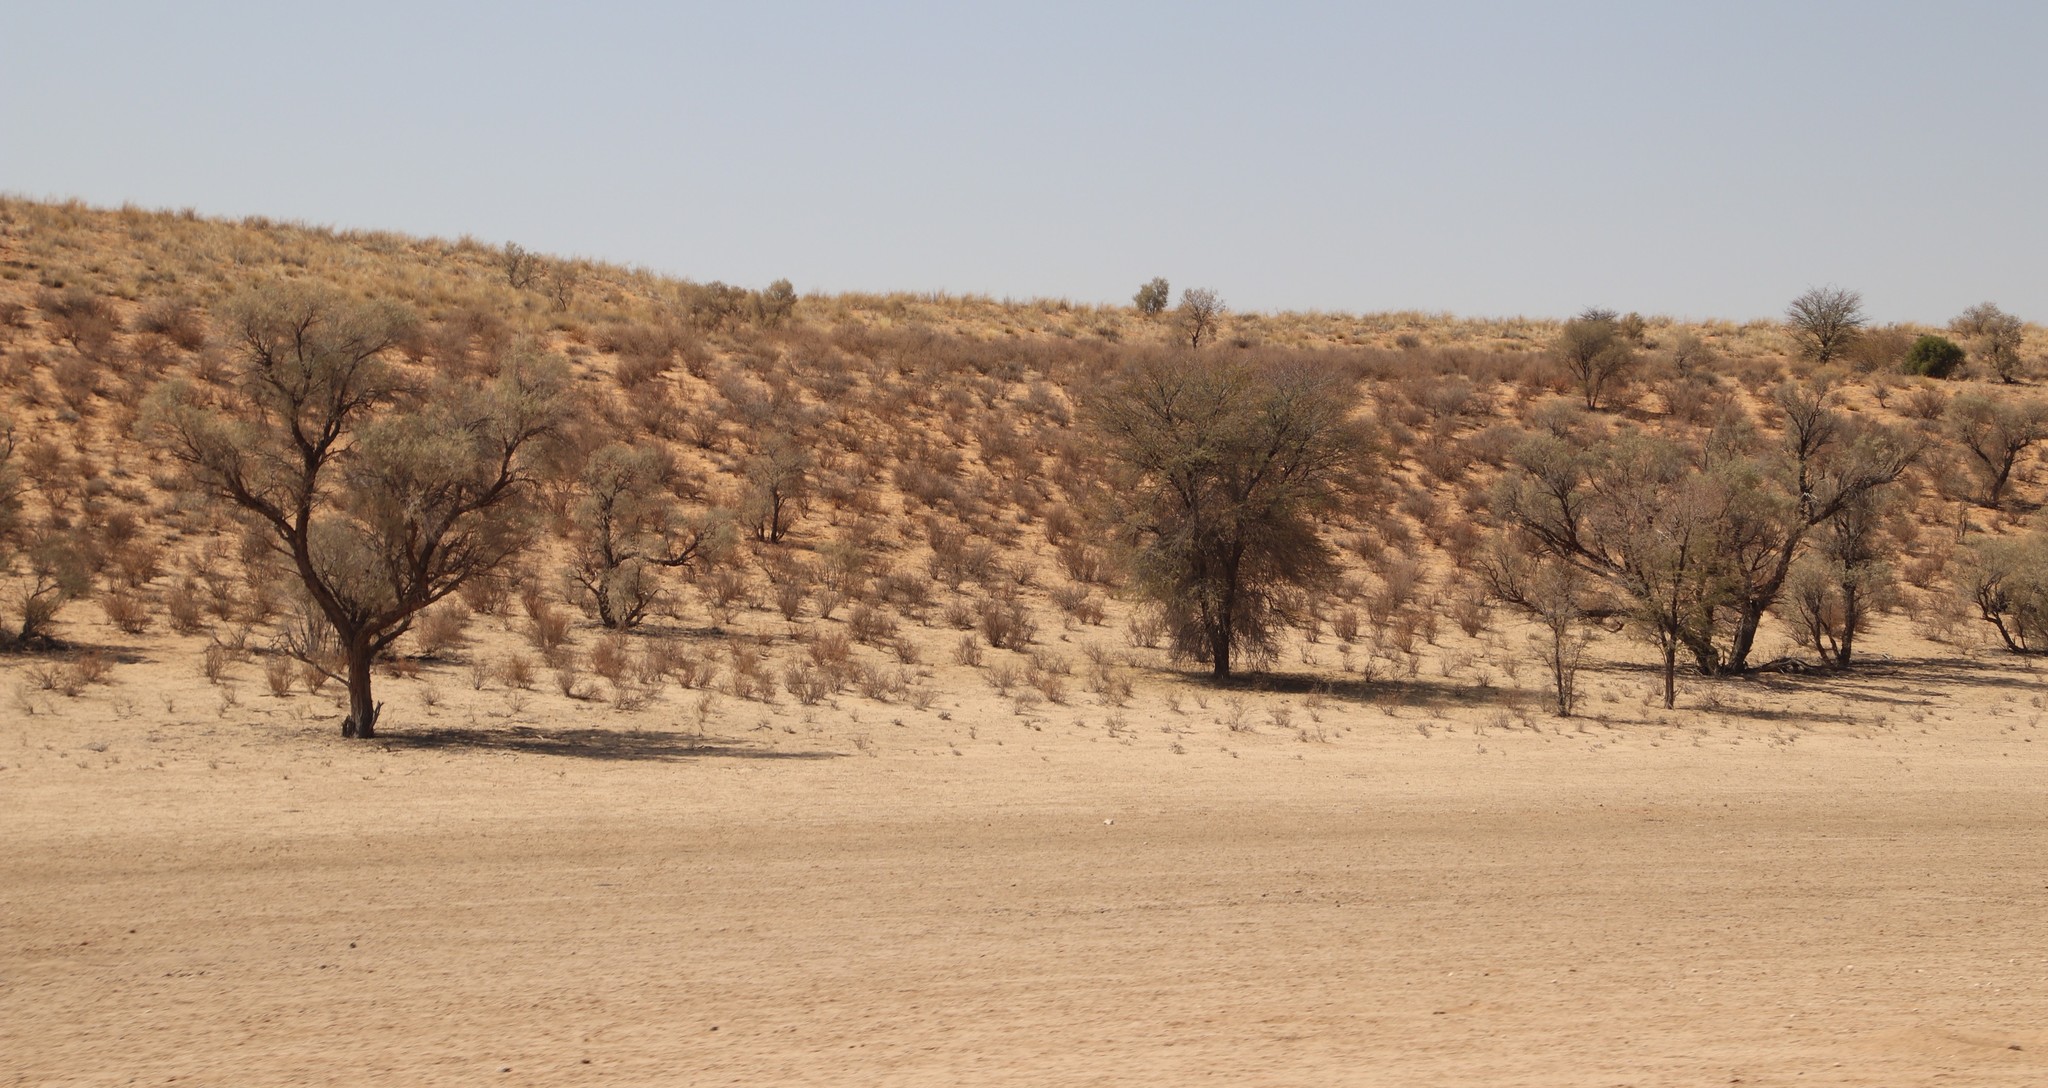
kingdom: Plantae
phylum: Tracheophyta
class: Magnoliopsida
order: Fabales
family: Fabaceae
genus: Vachellia
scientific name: Vachellia haematoxylon
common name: Grey camel thorn
